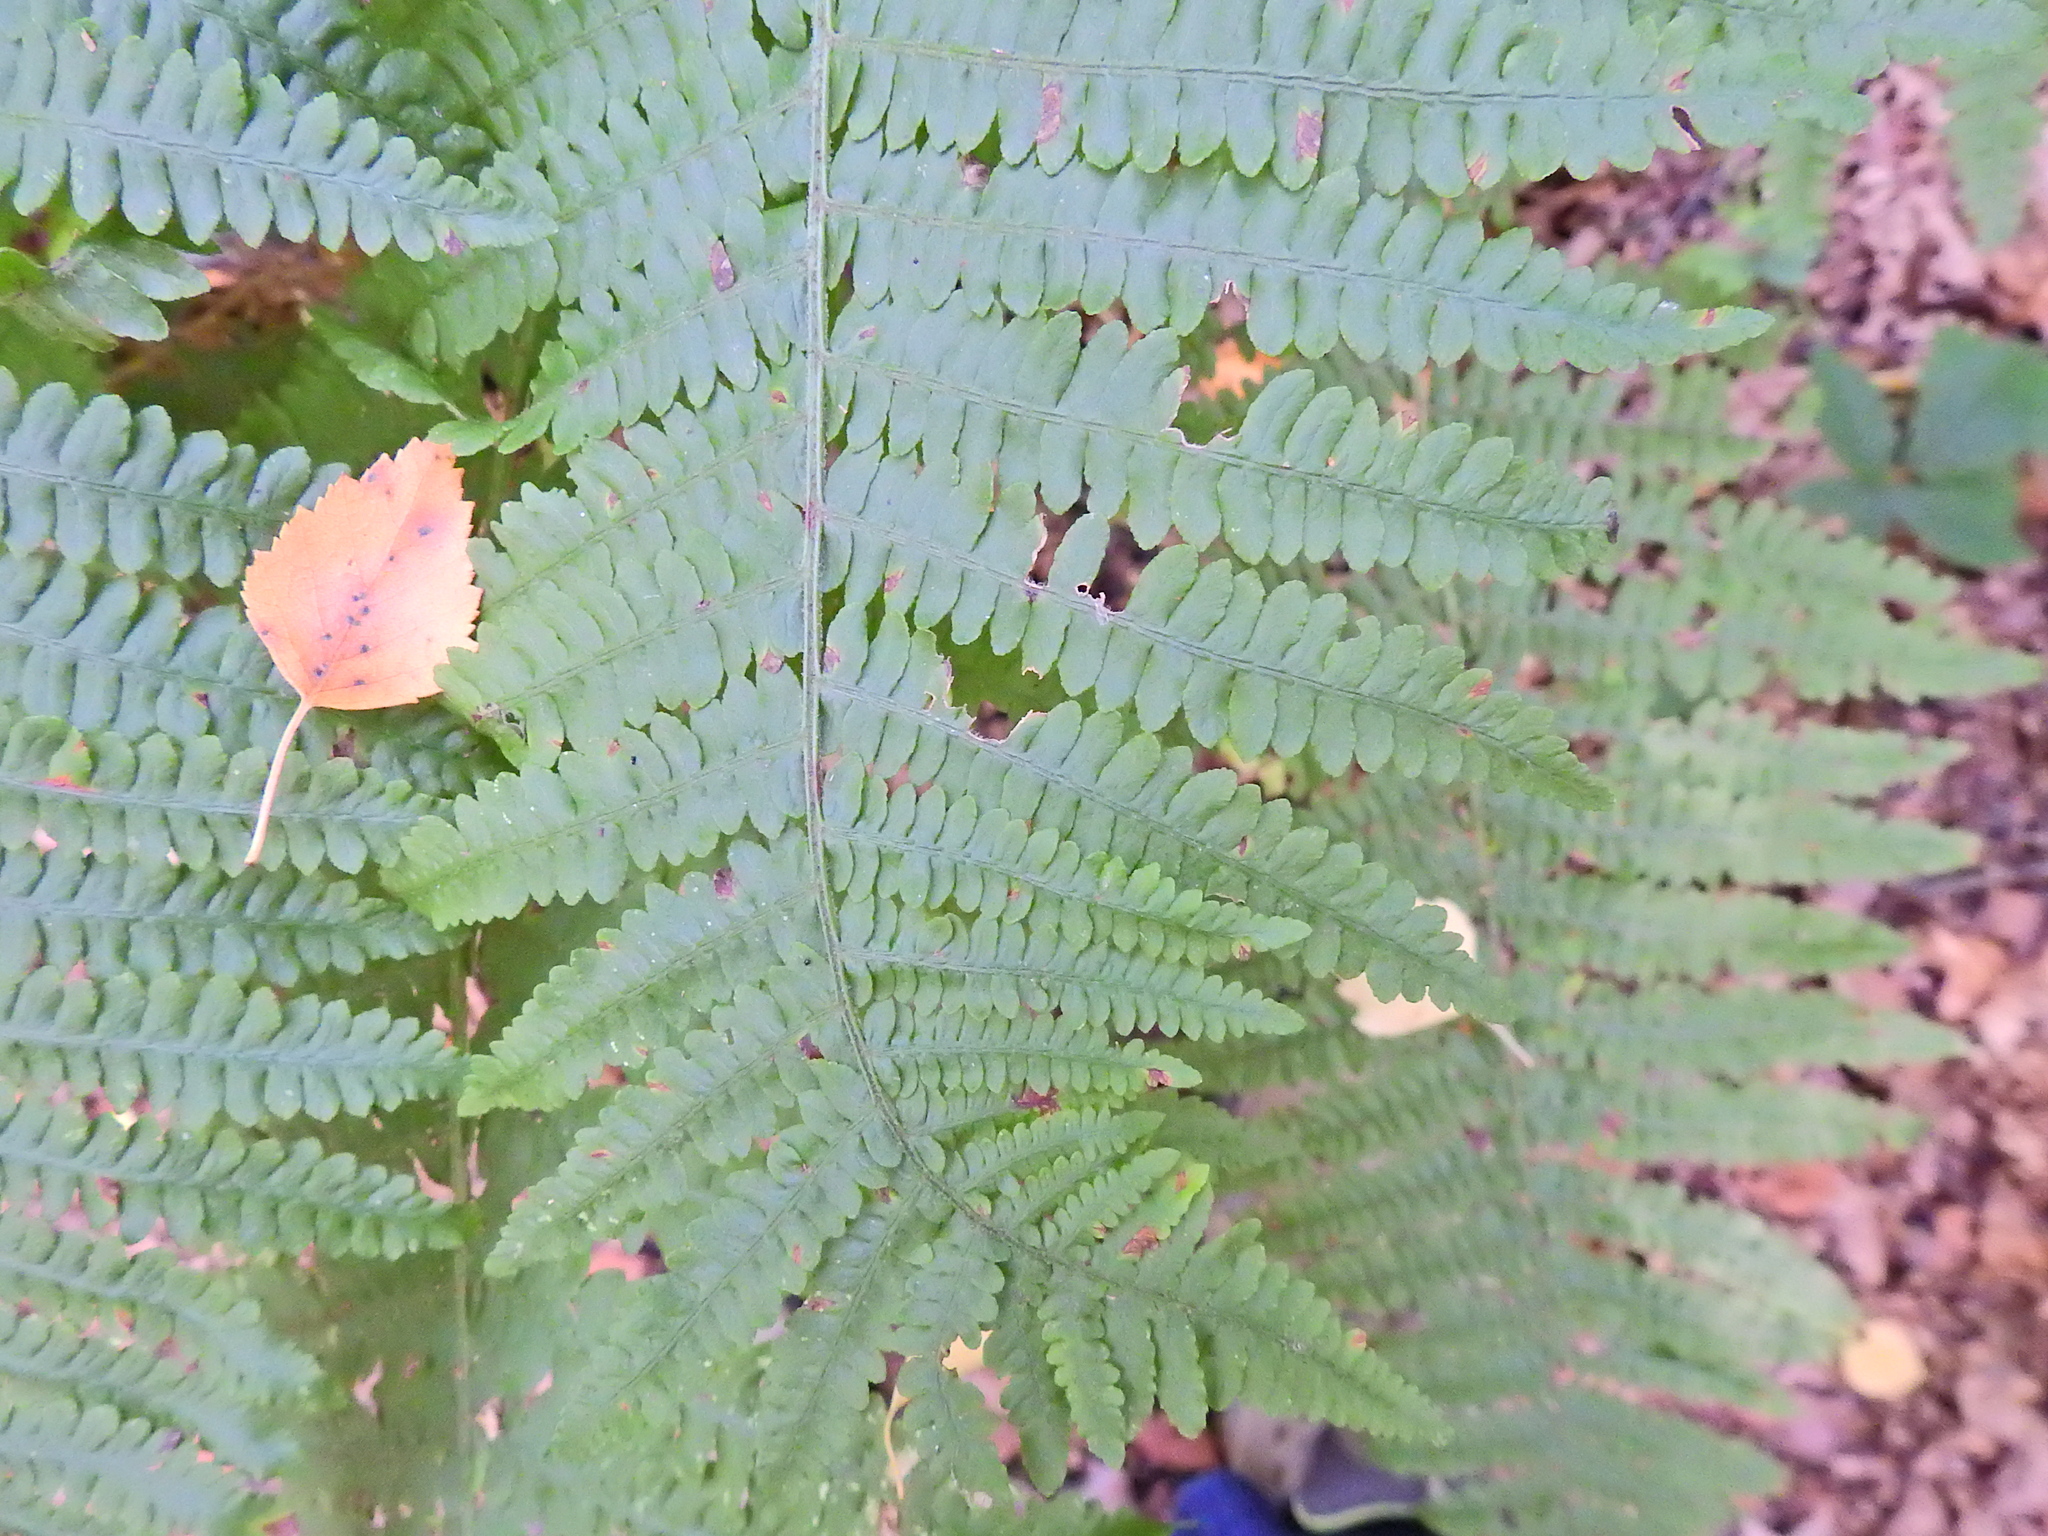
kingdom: Plantae
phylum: Tracheophyta
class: Polypodiopsida
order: Polypodiales
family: Dennstaedtiaceae
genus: Pteridium
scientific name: Pteridium aquilinum
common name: Bracken
